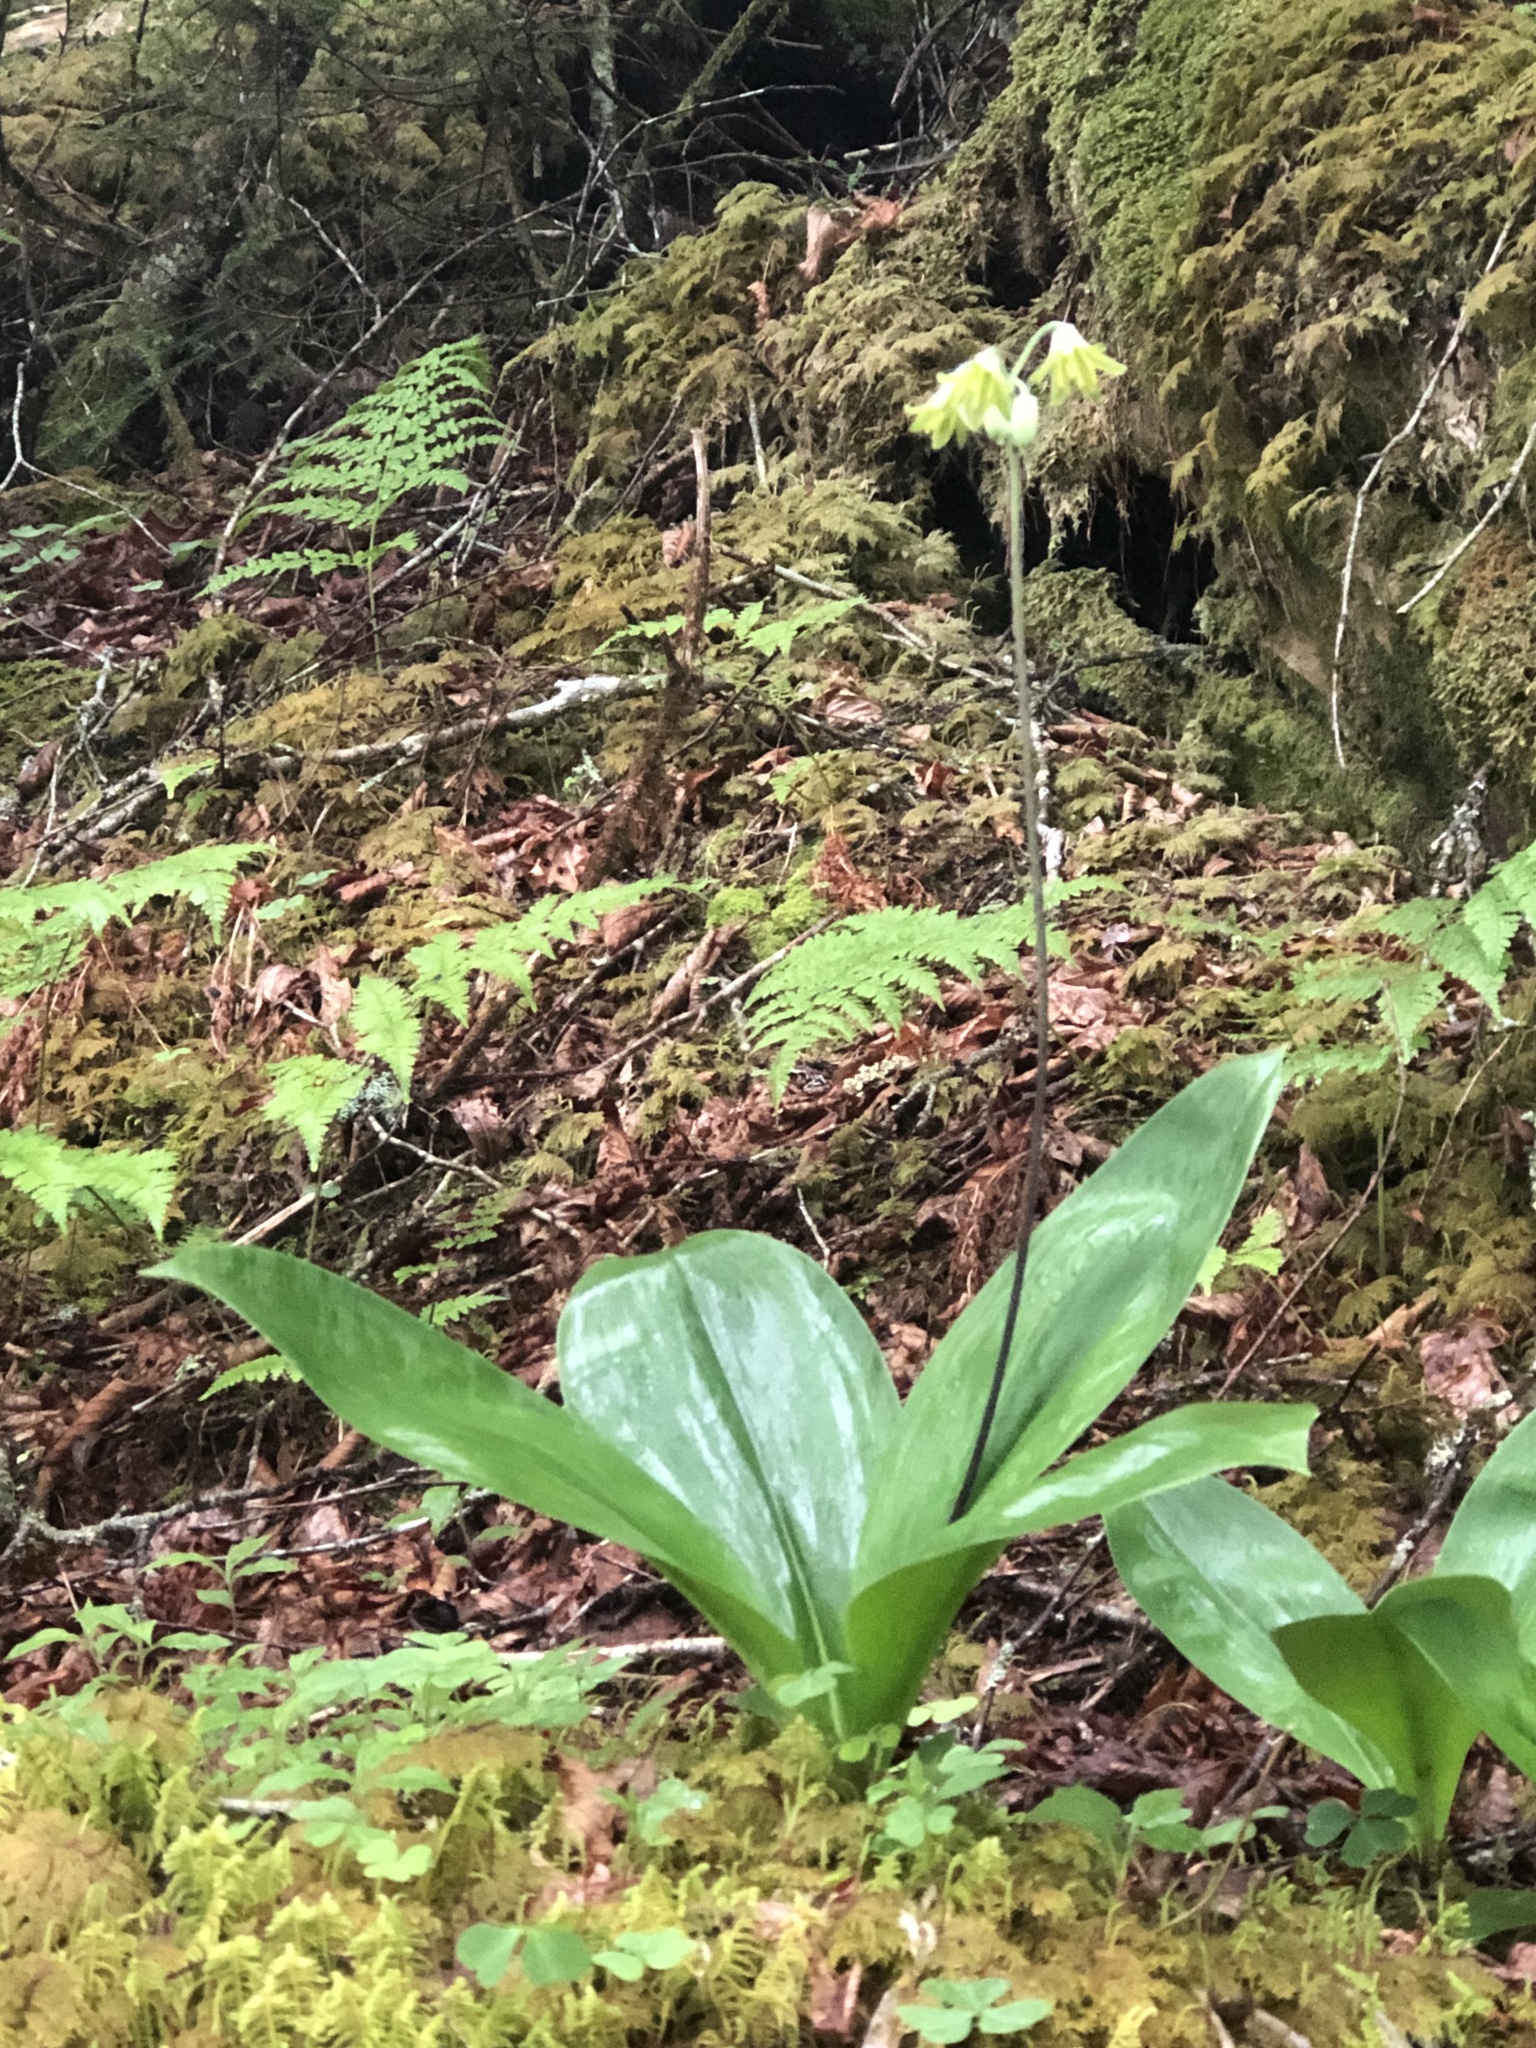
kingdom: Plantae
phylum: Tracheophyta
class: Liliopsida
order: Liliales
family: Liliaceae
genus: Clintonia
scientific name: Clintonia borealis
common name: Yellow clintonia
